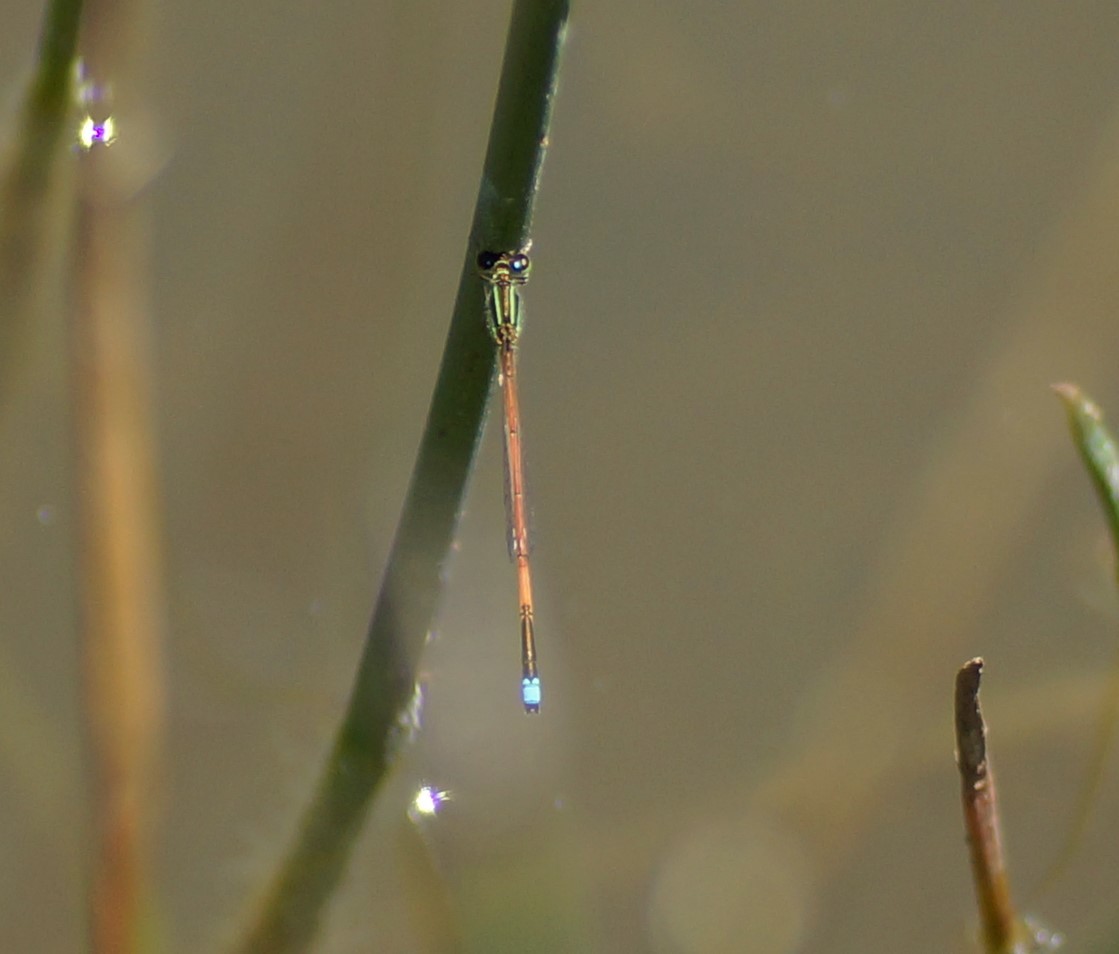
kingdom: Animalia
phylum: Arthropoda
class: Insecta
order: Odonata
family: Coenagrionidae
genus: Ischnura
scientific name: Ischnura aurora
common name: Gossamer damselfly
